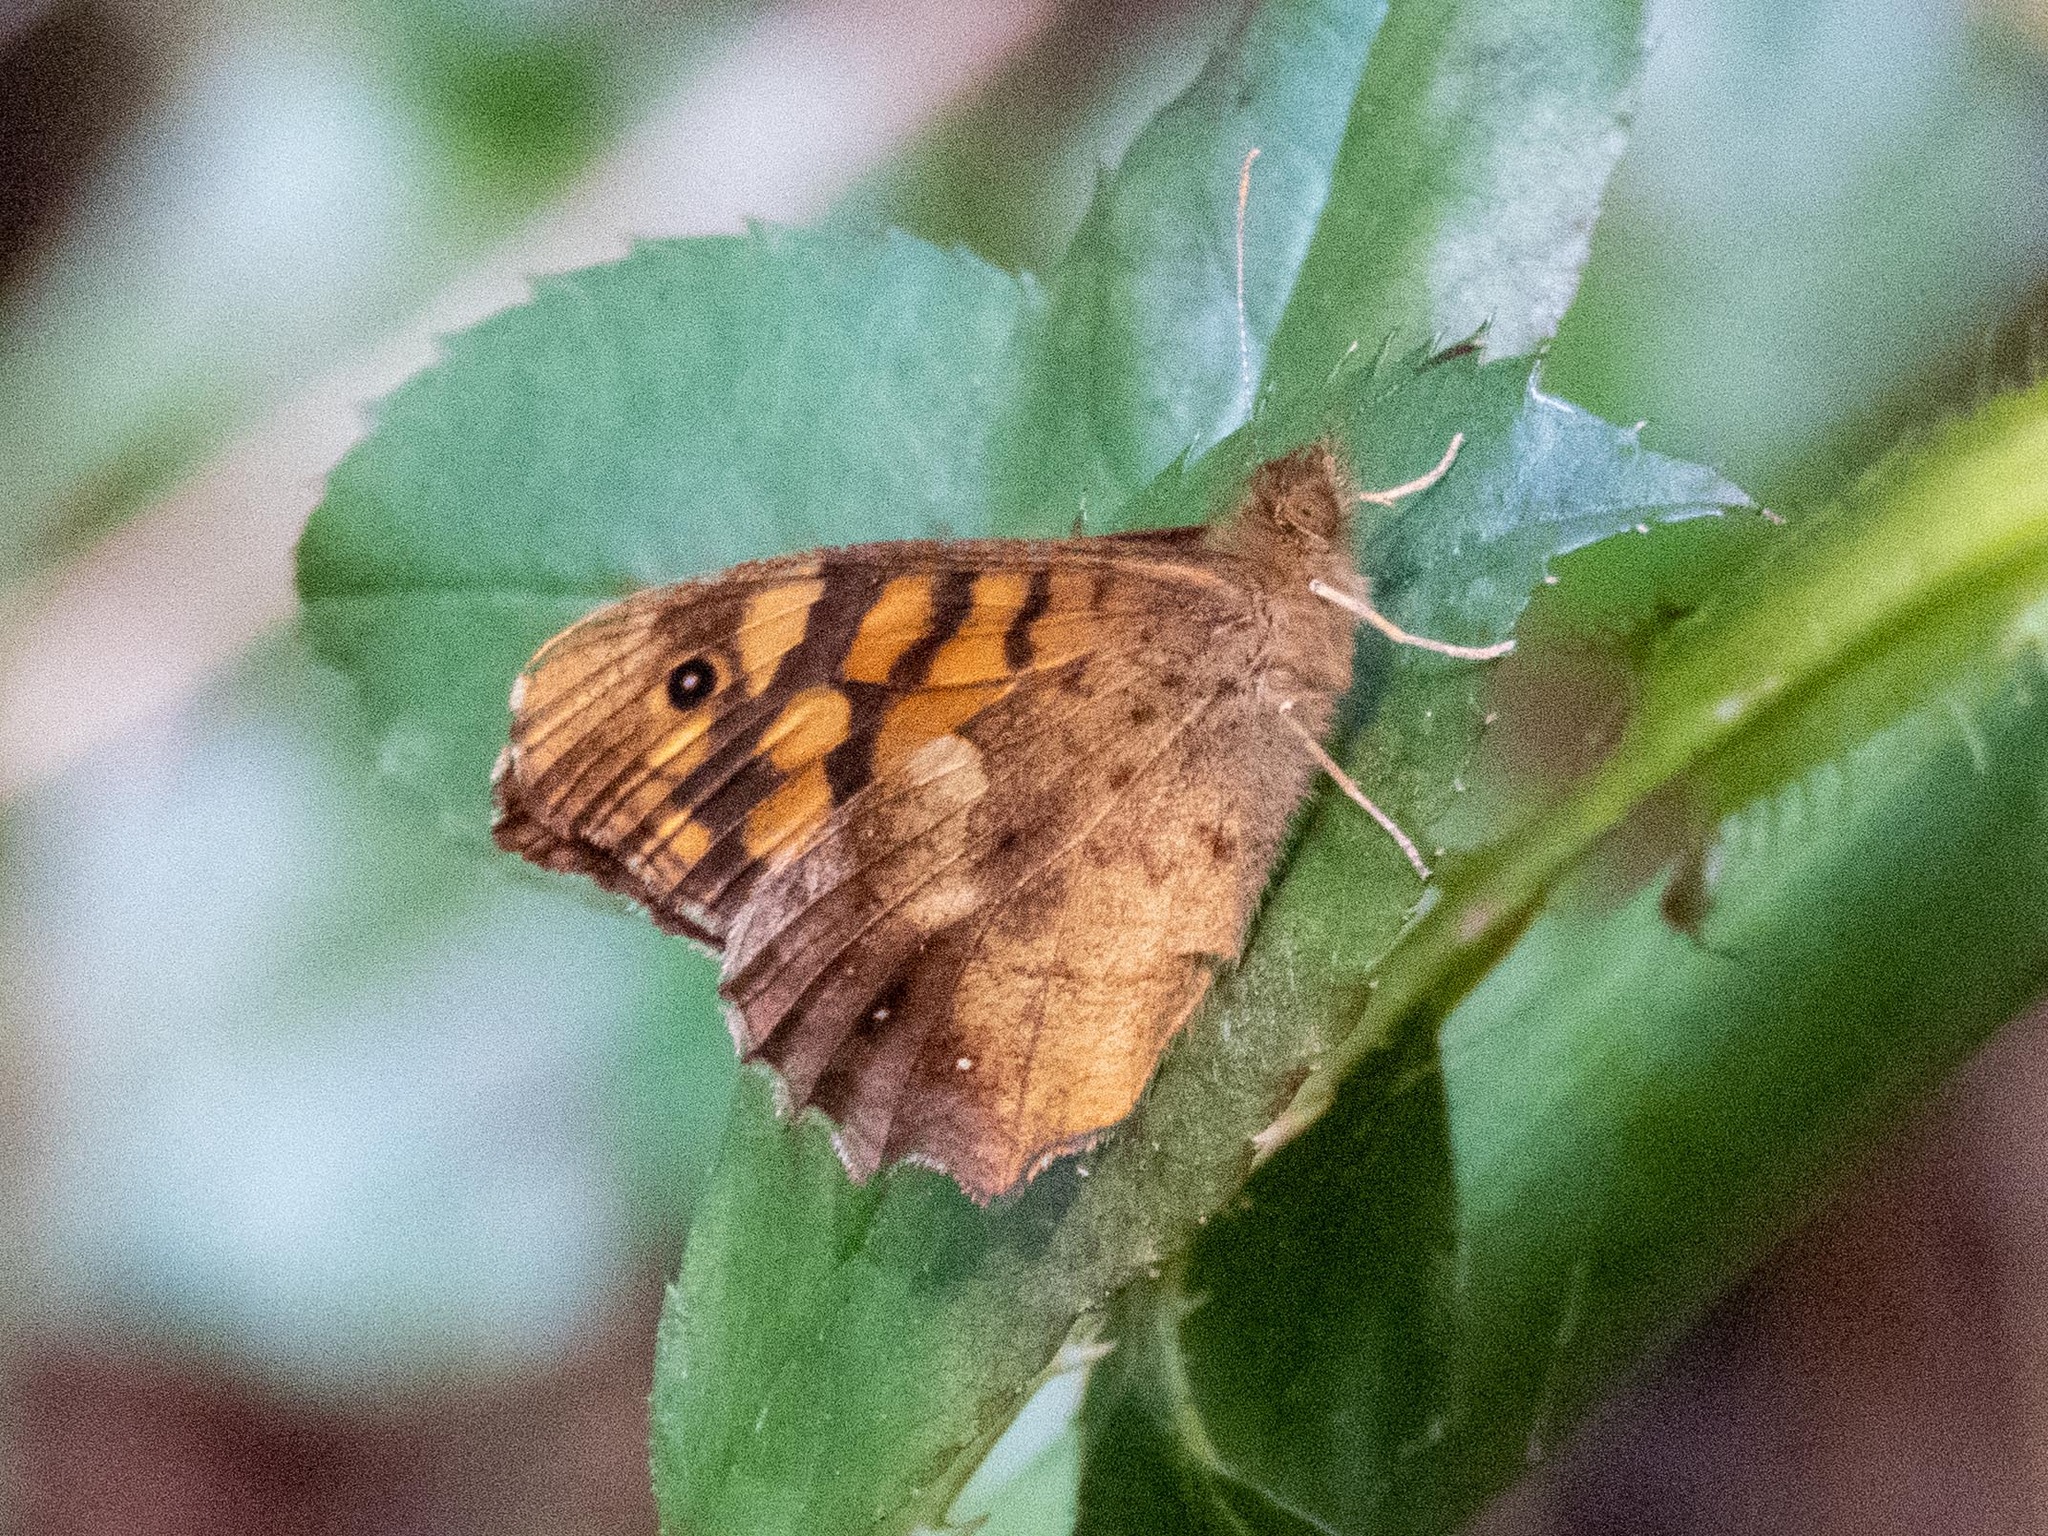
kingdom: Animalia
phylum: Arthropoda
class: Insecta
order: Lepidoptera
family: Nymphalidae
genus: Pararge
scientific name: Pararge aegeria
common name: Speckled wood
